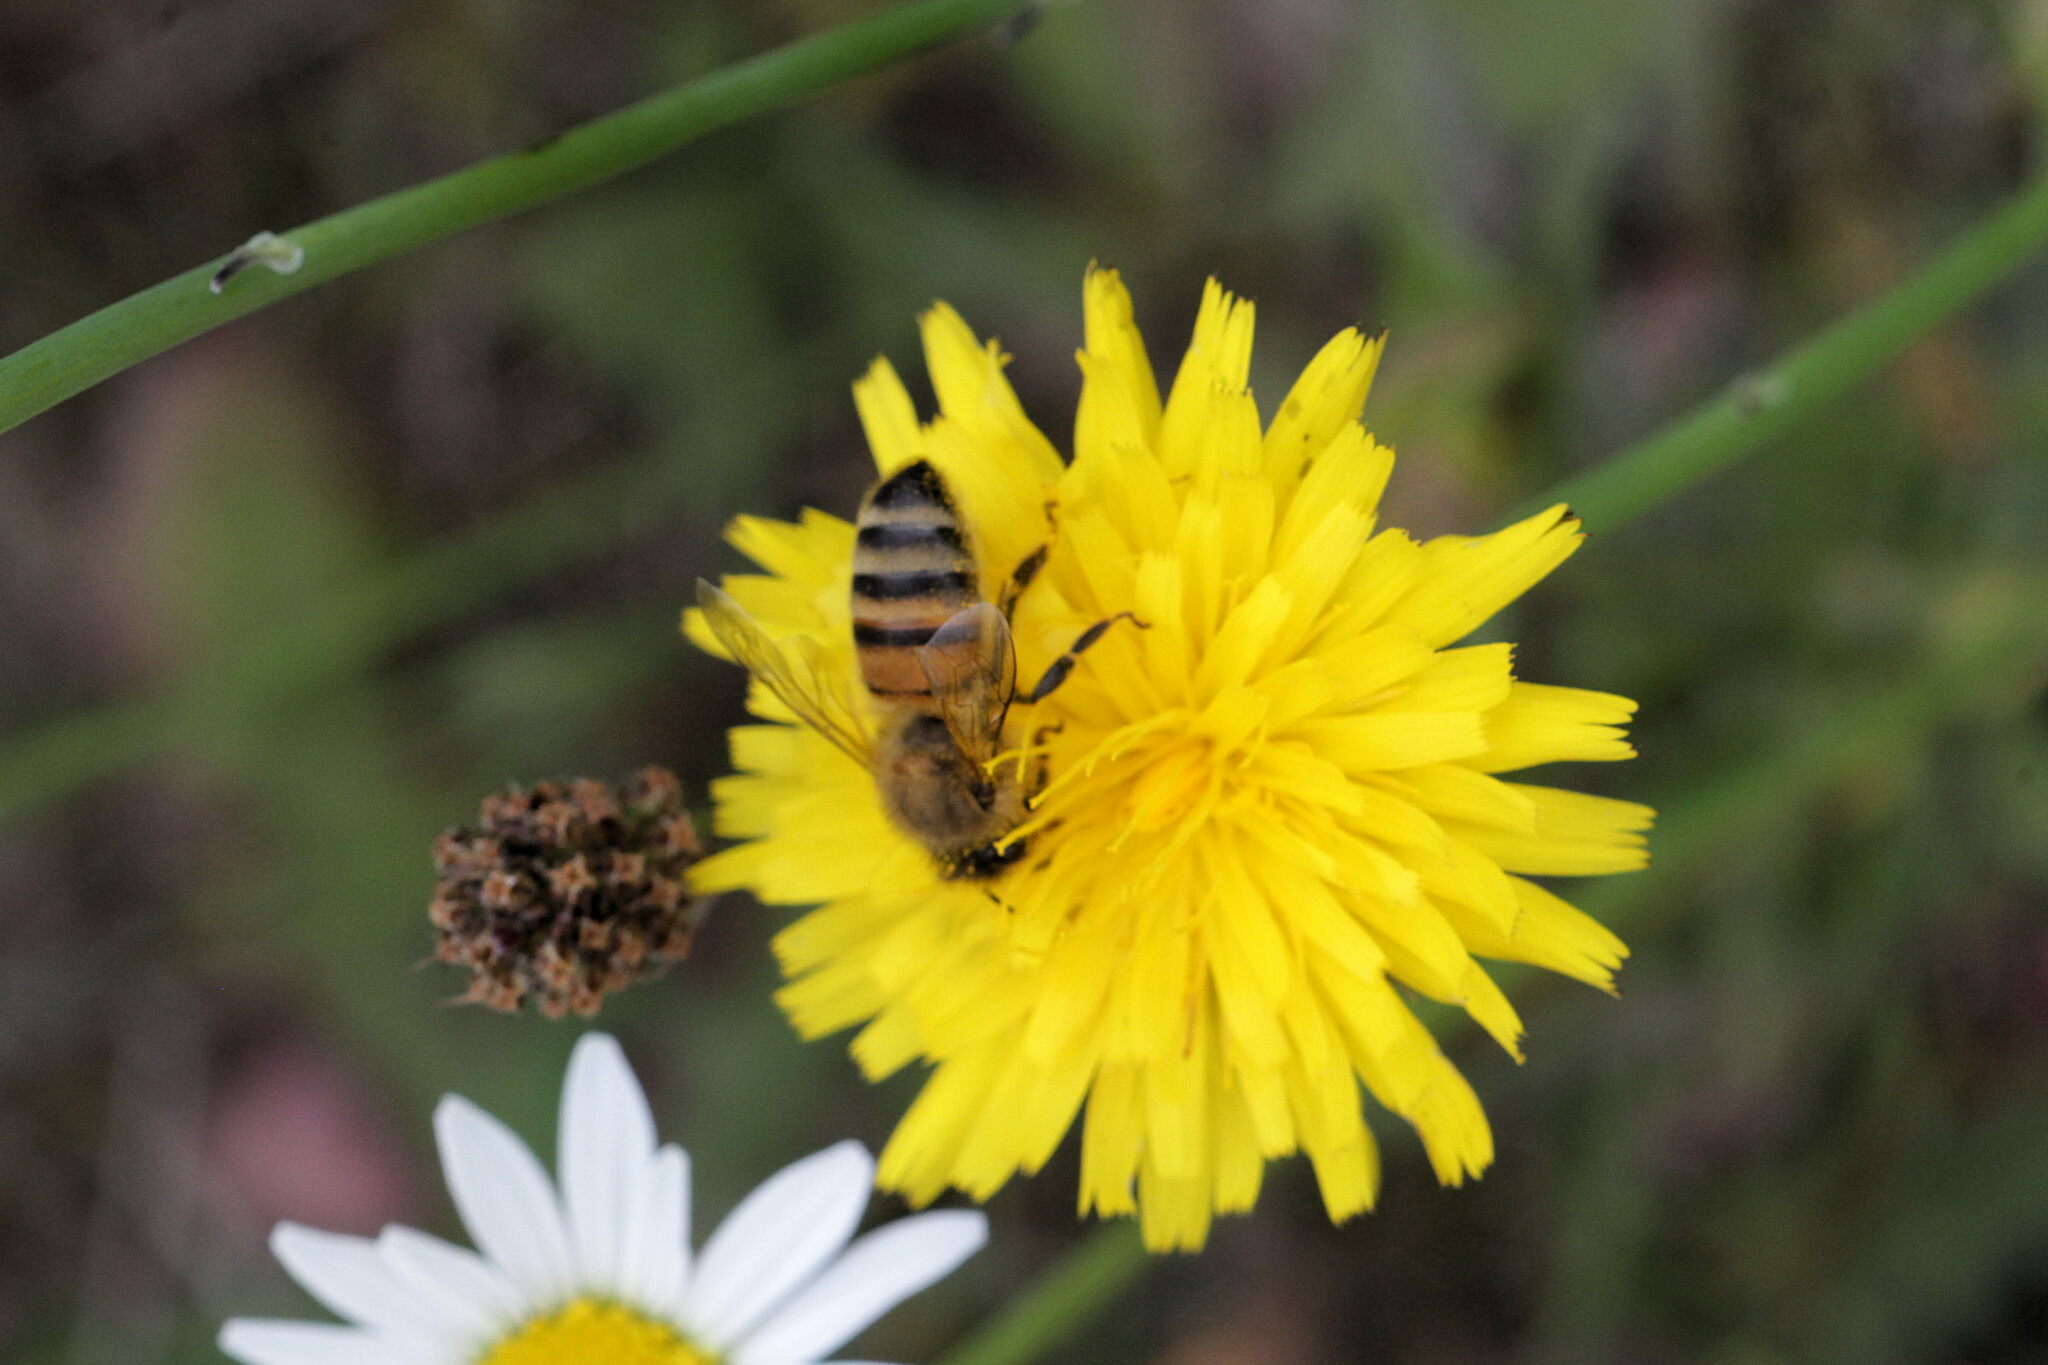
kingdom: Animalia
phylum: Arthropoda
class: Insecta
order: Hymenoptera
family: Apidae
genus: Apis
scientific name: Apis mellifera
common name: Honey bee
